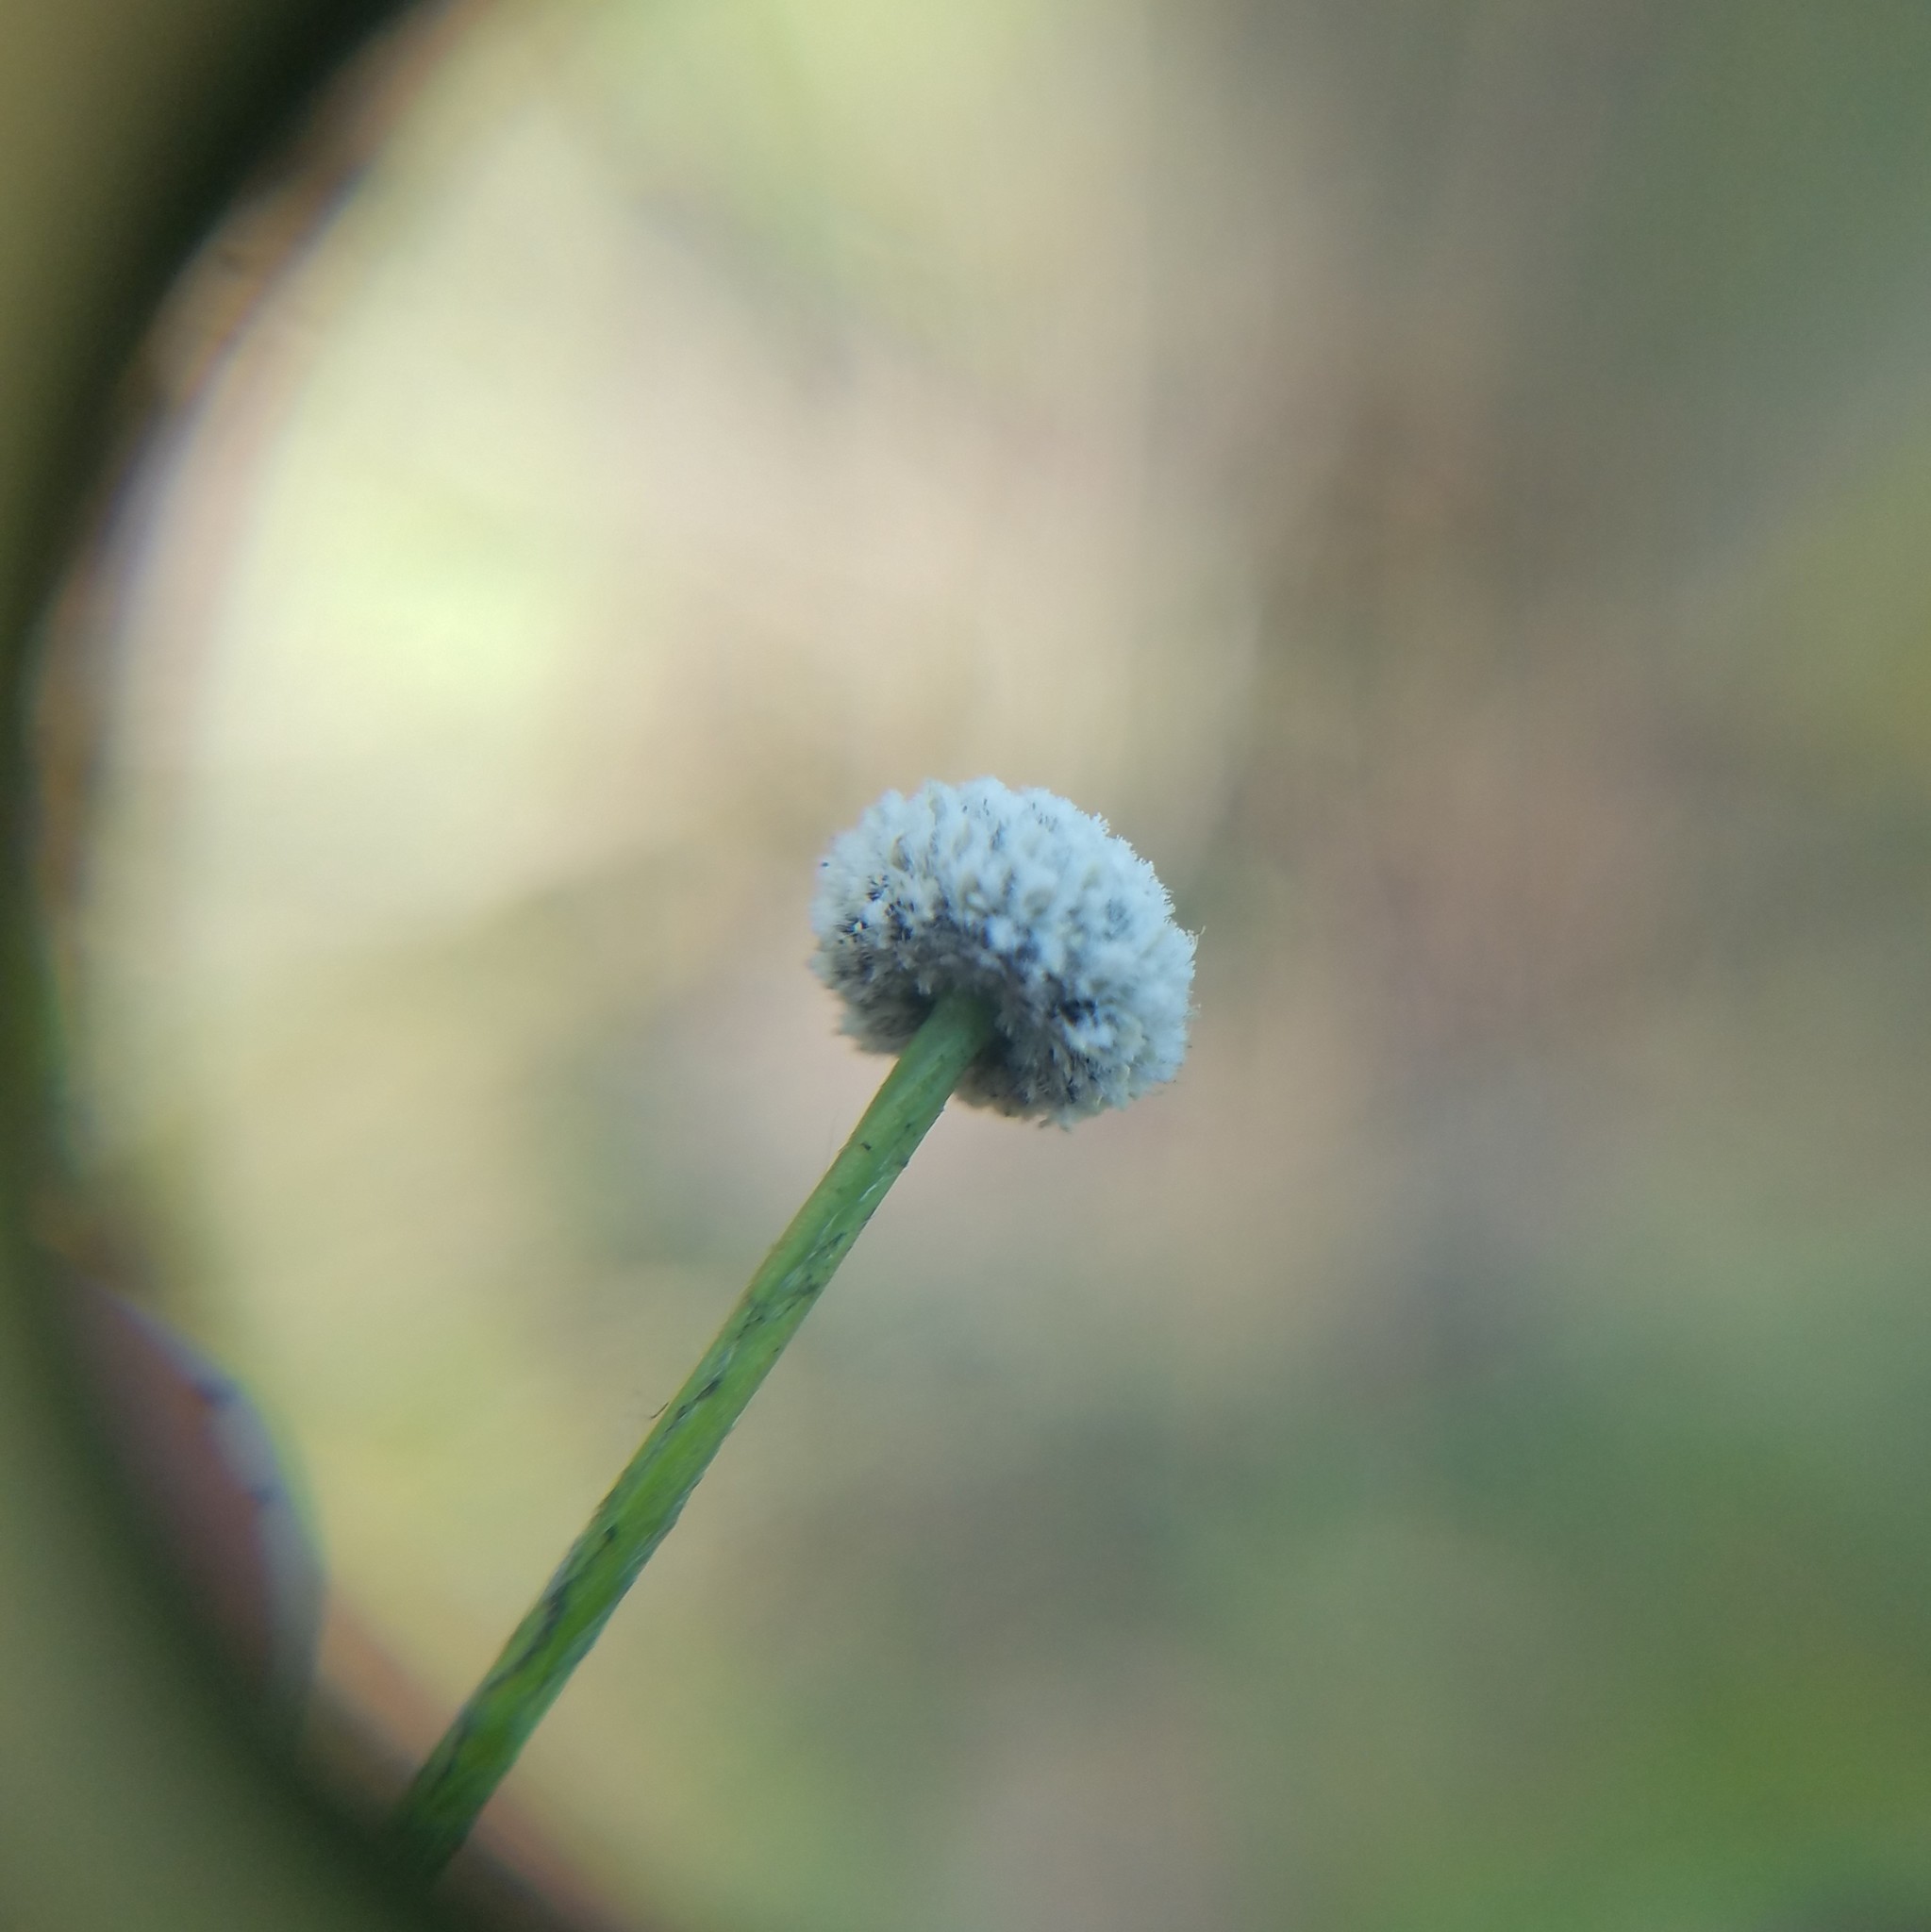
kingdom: Plantae
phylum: Tracheophyta
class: Liliopsida
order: Poales
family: Eriocaulaceae
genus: Paepalanthus
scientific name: Paepalanthus anceps
